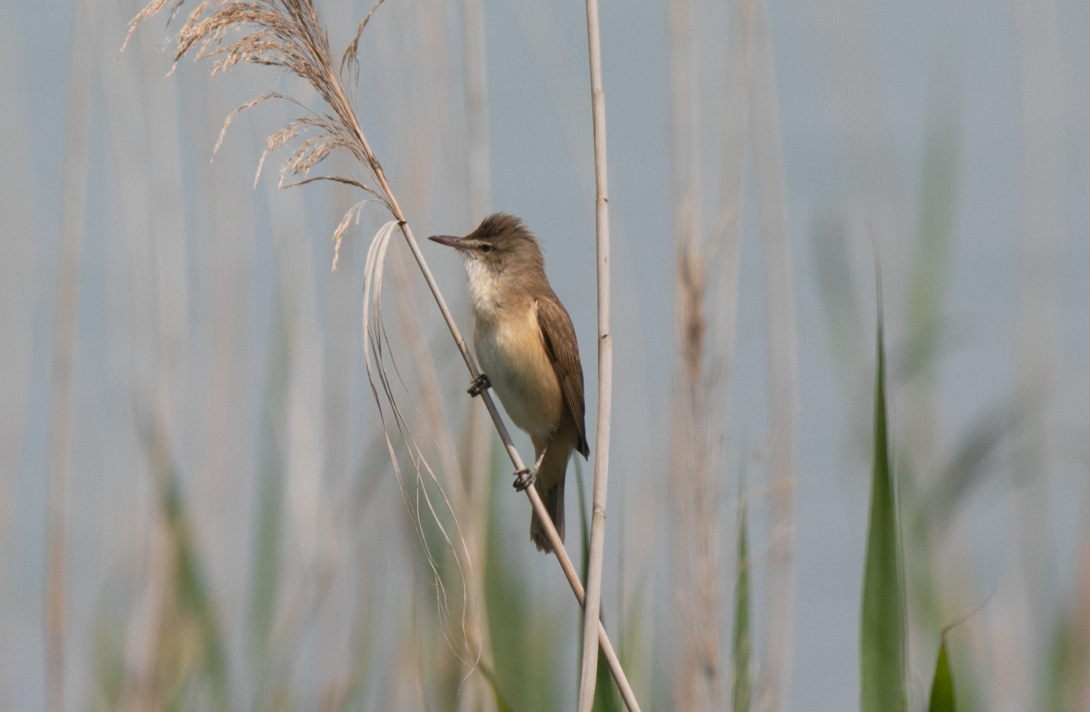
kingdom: Animalia
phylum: Chordata
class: Aves
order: Passeriformes
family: Acrocephalidae
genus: Acrocephalus
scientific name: Acrocephalus arundinaceus
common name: Great reed warbler
